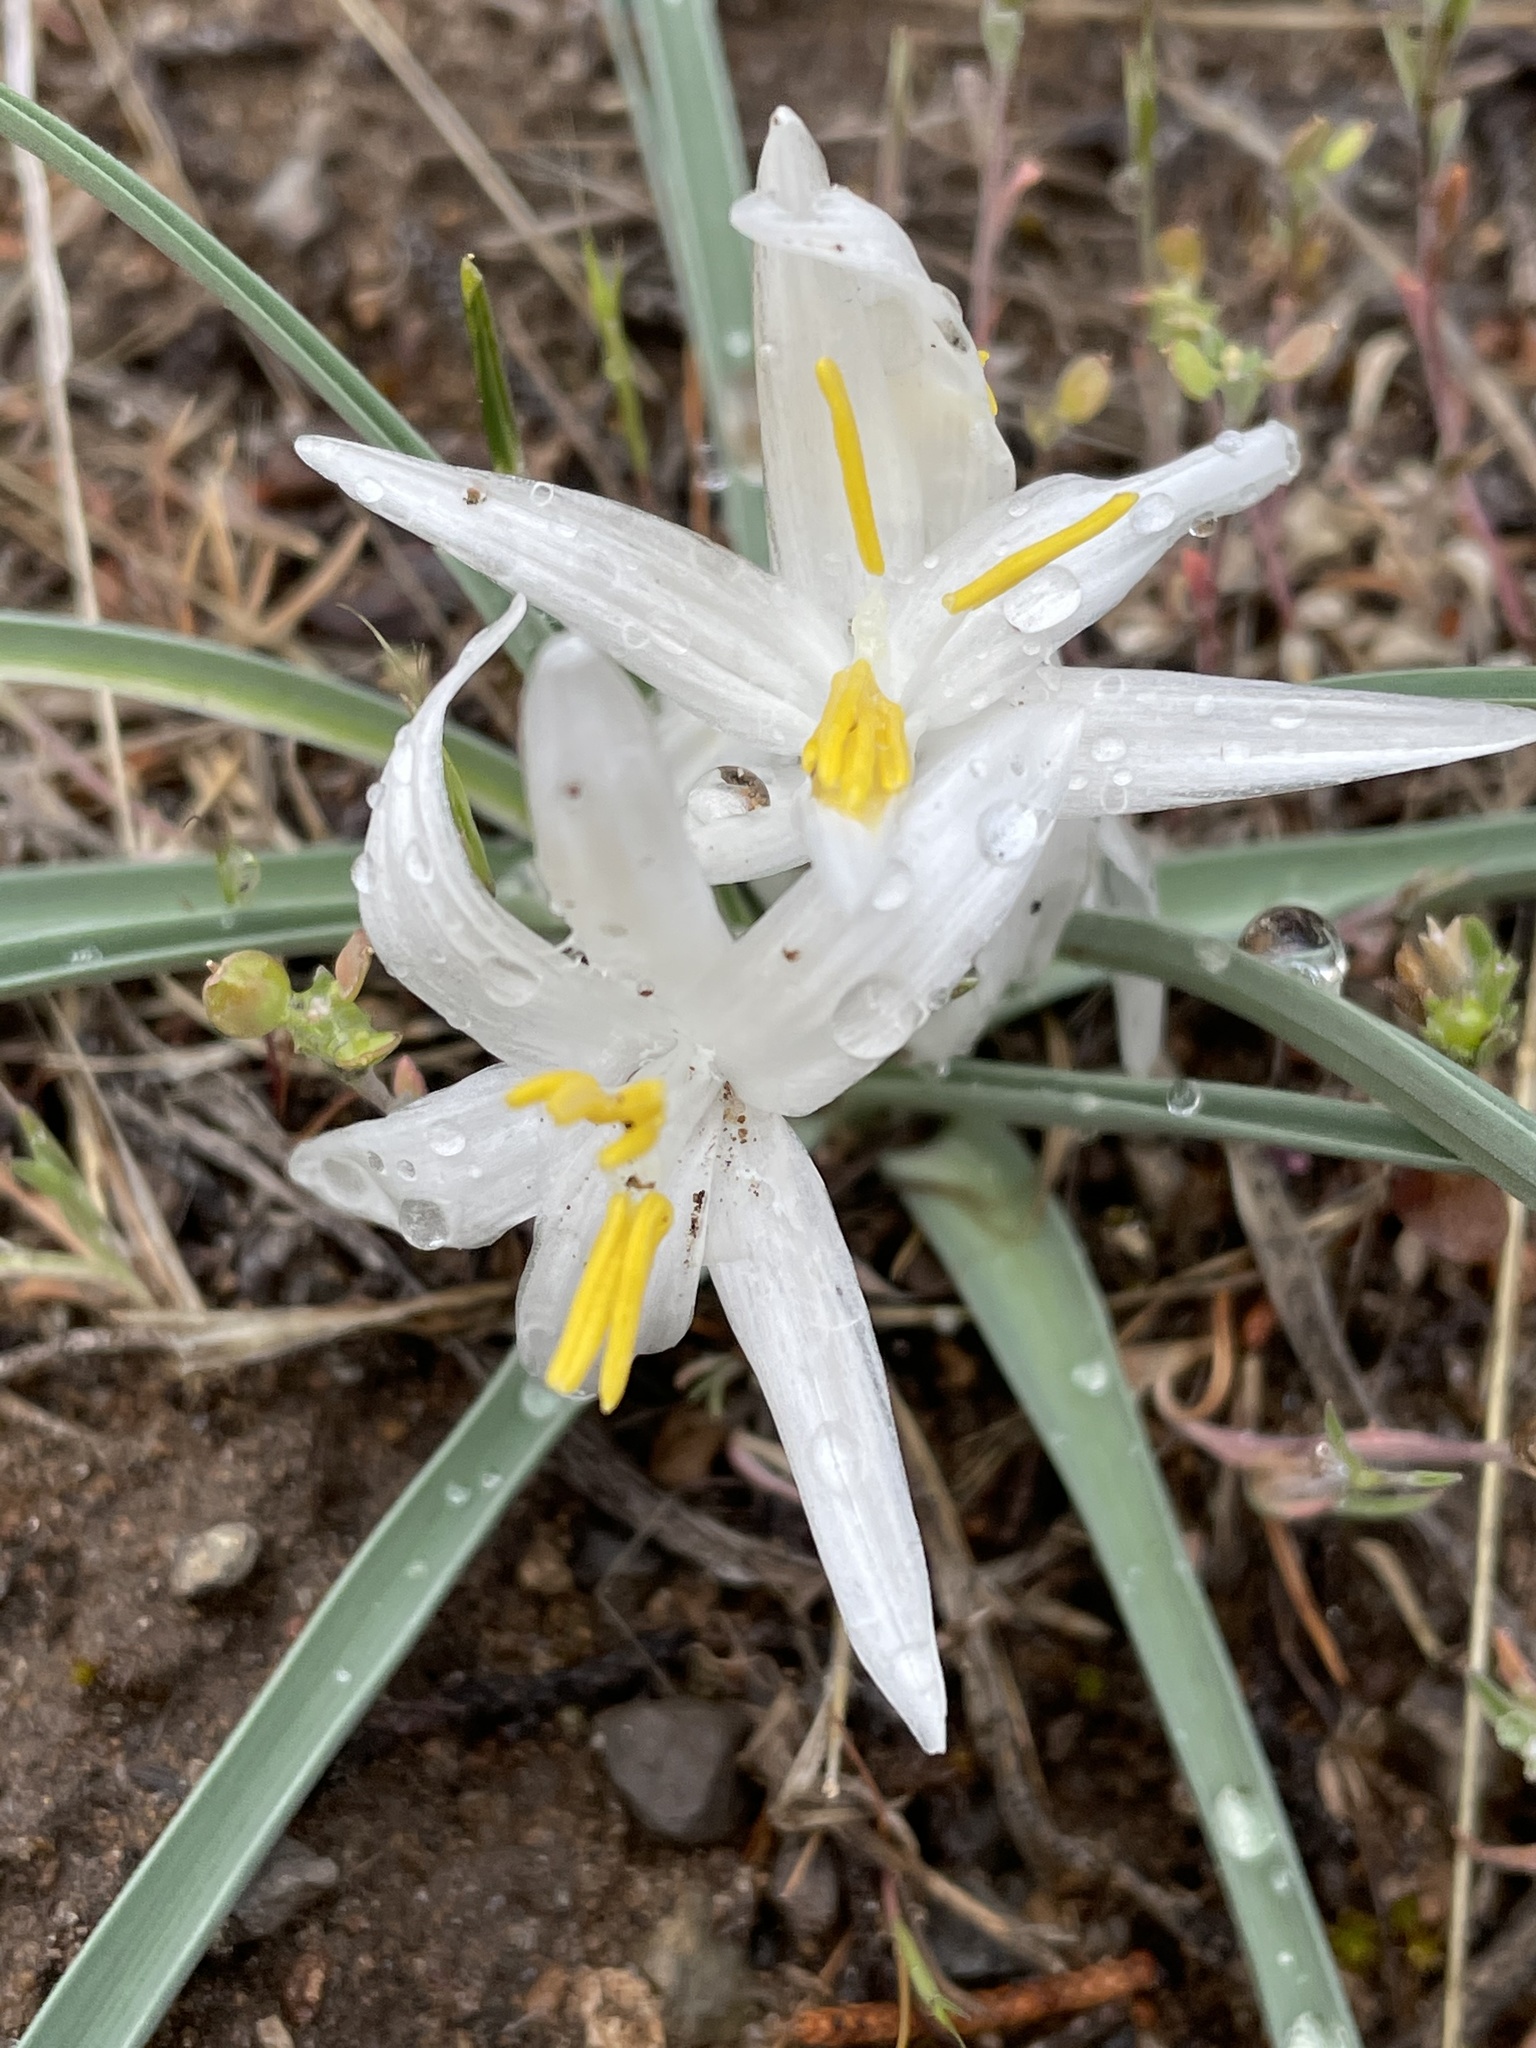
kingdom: Plantae
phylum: Tracheophyta
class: Liliopsida
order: Asparagales
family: Asparagaceae
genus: Leucocrinum
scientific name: Leucocrinum montanum
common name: Mountain-lily
